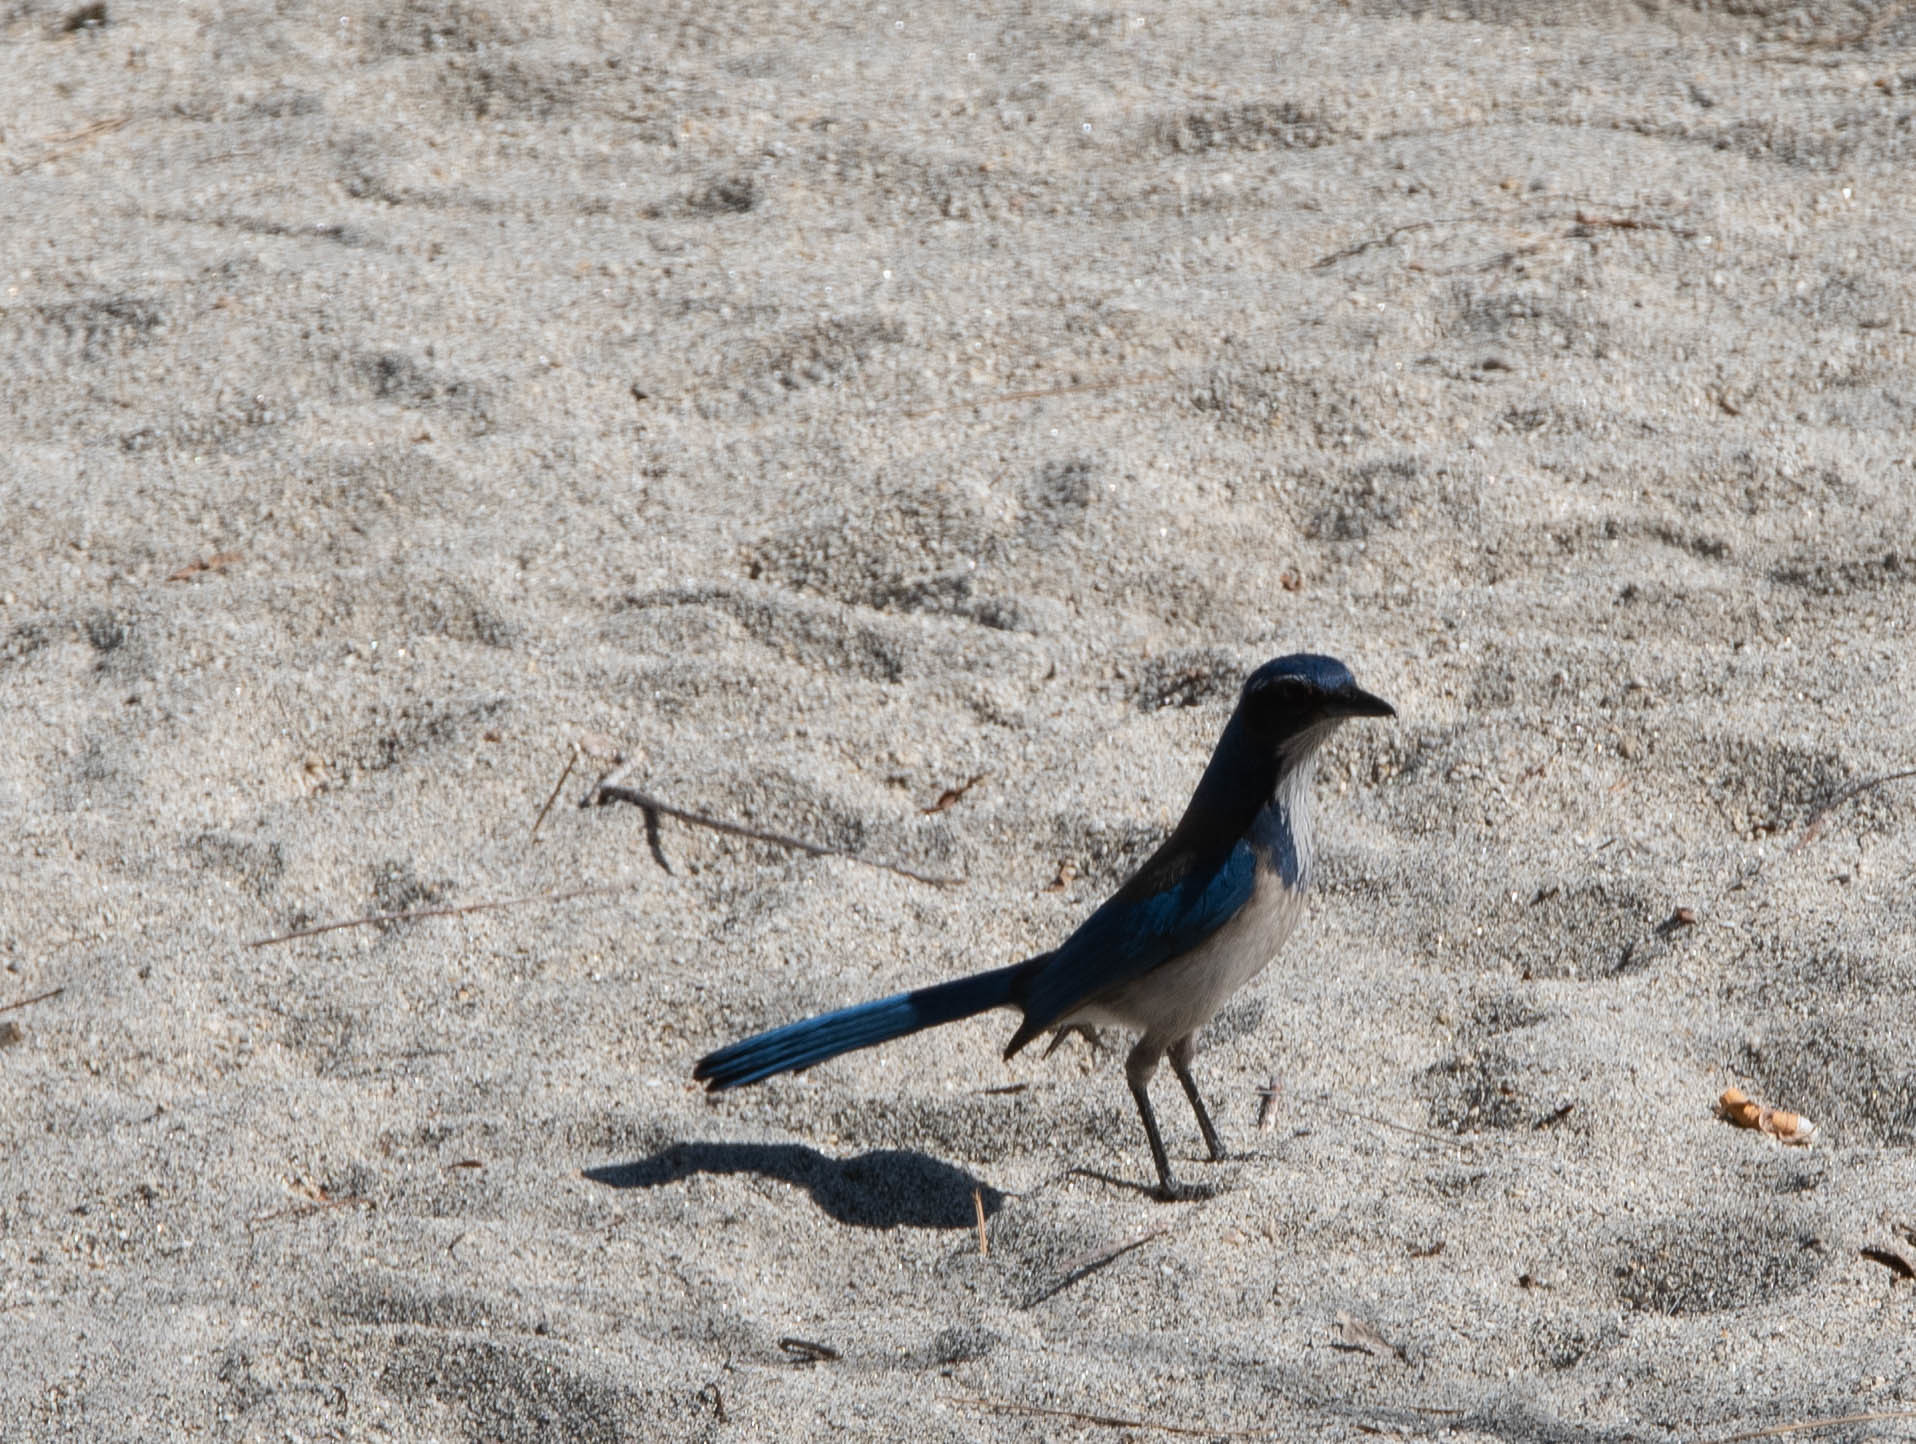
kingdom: Animalia
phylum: Chordata
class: Aves
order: Passeriformes
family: Corvidae
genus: Aphelocoma
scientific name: Aphelocoma californica
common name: California scrub-jay
